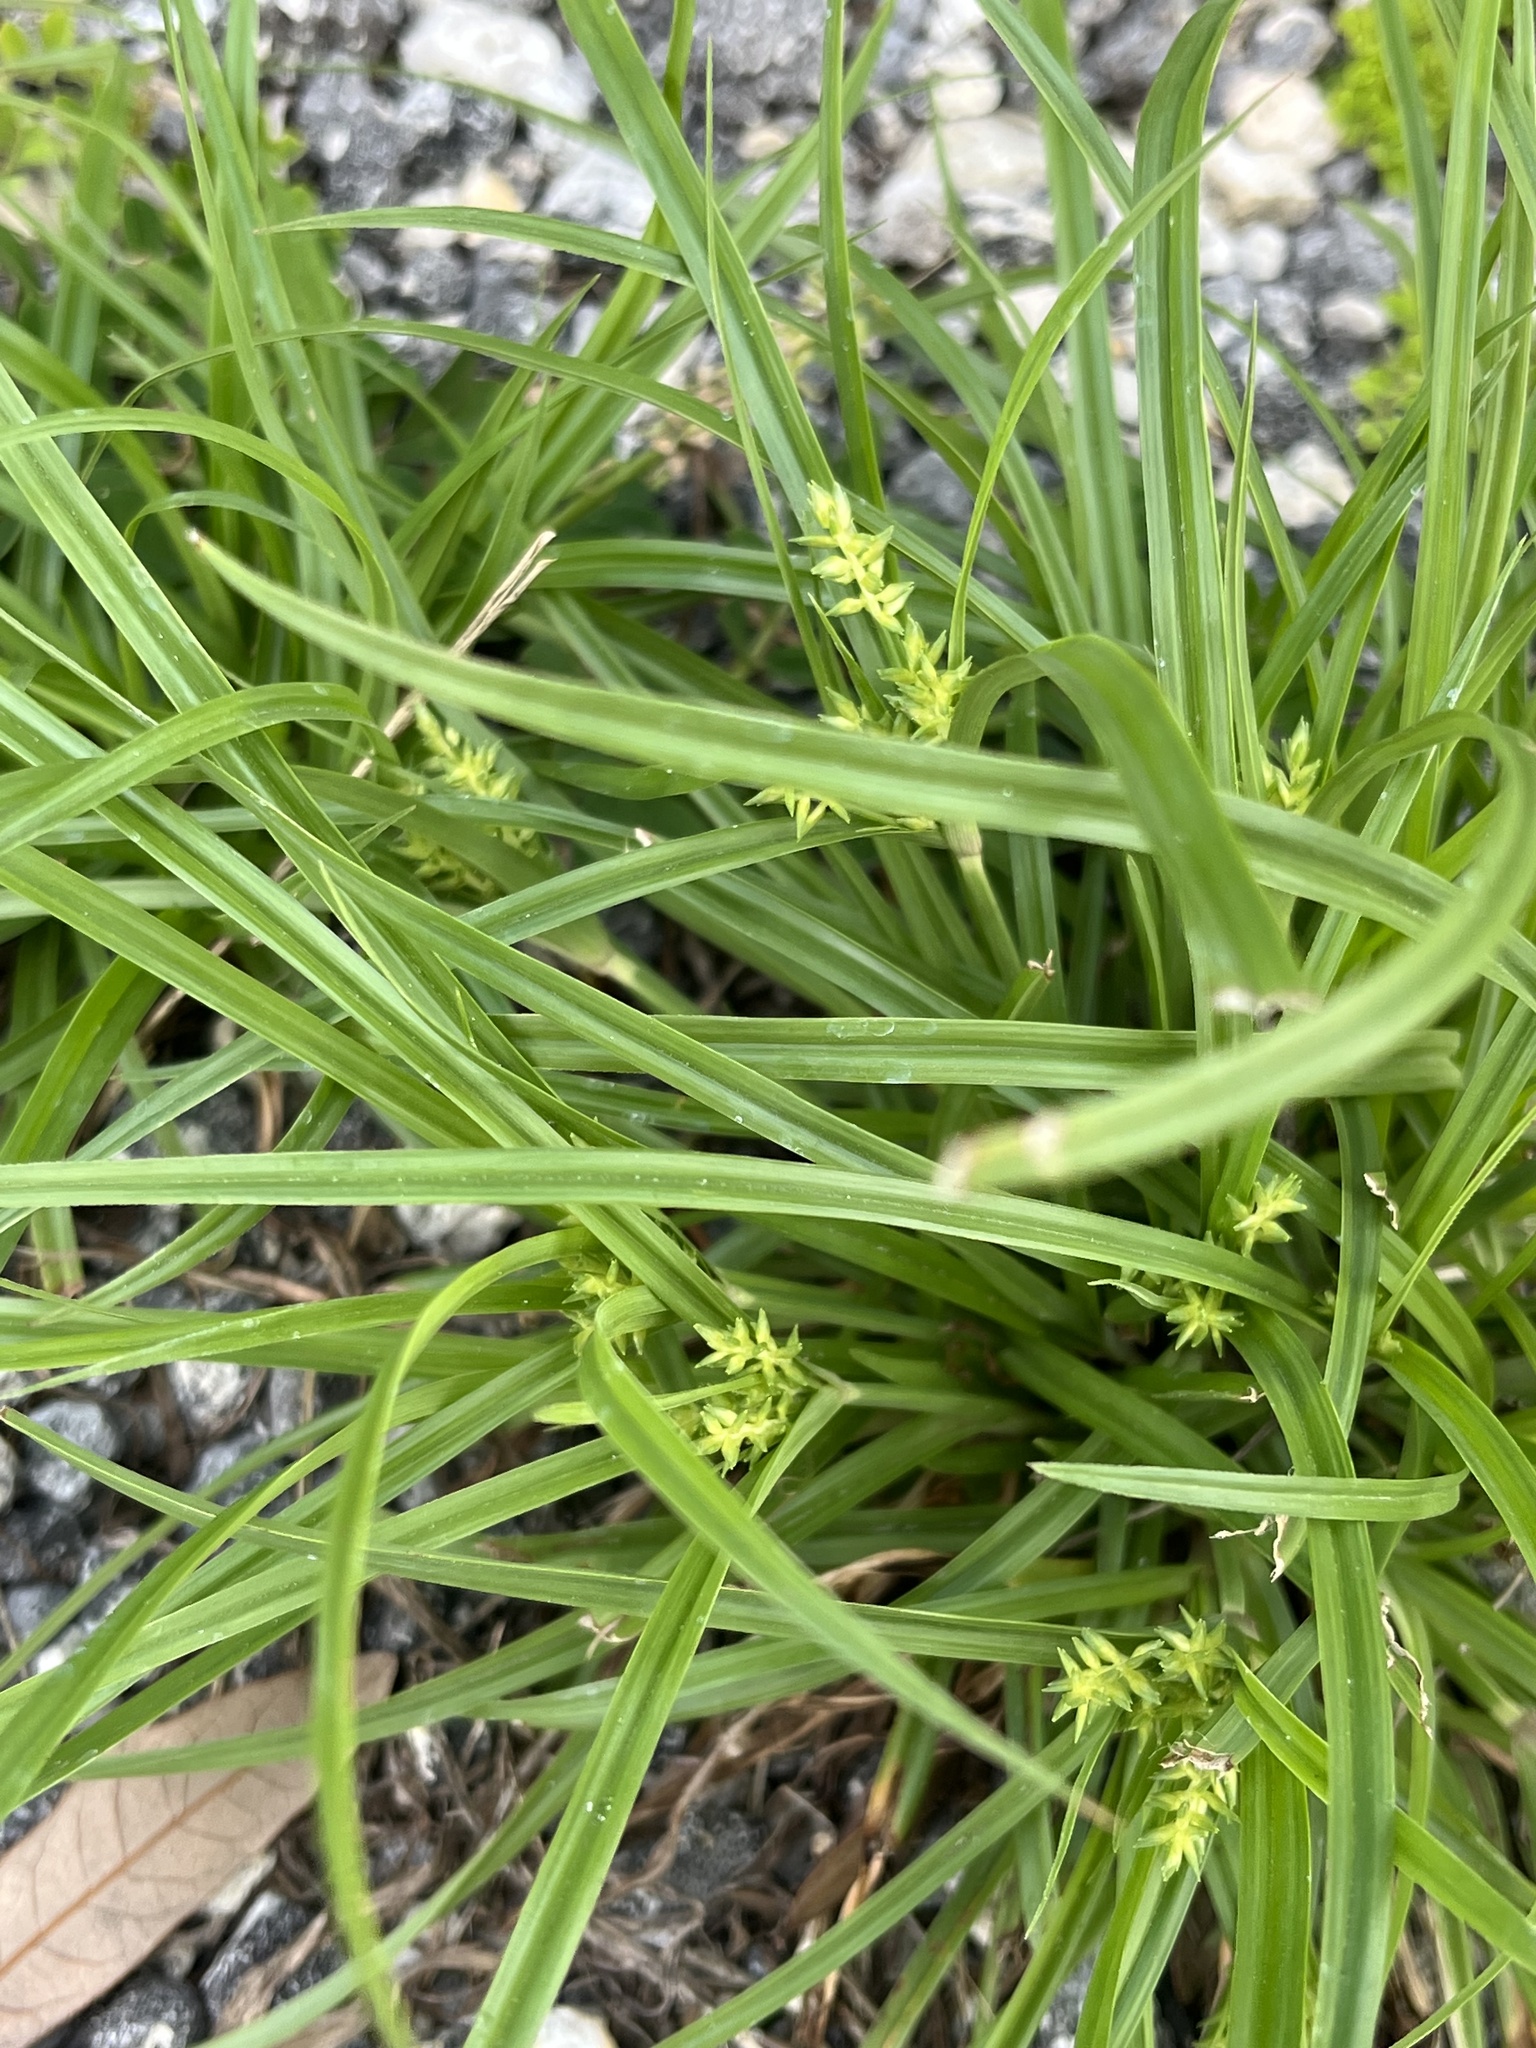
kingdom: Plantae
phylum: Tracheophyta
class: Liliopsida
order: Poales
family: Cyperaceae
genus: Cyperus
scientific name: Cyperus hyalinus
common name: Queensland sedge
